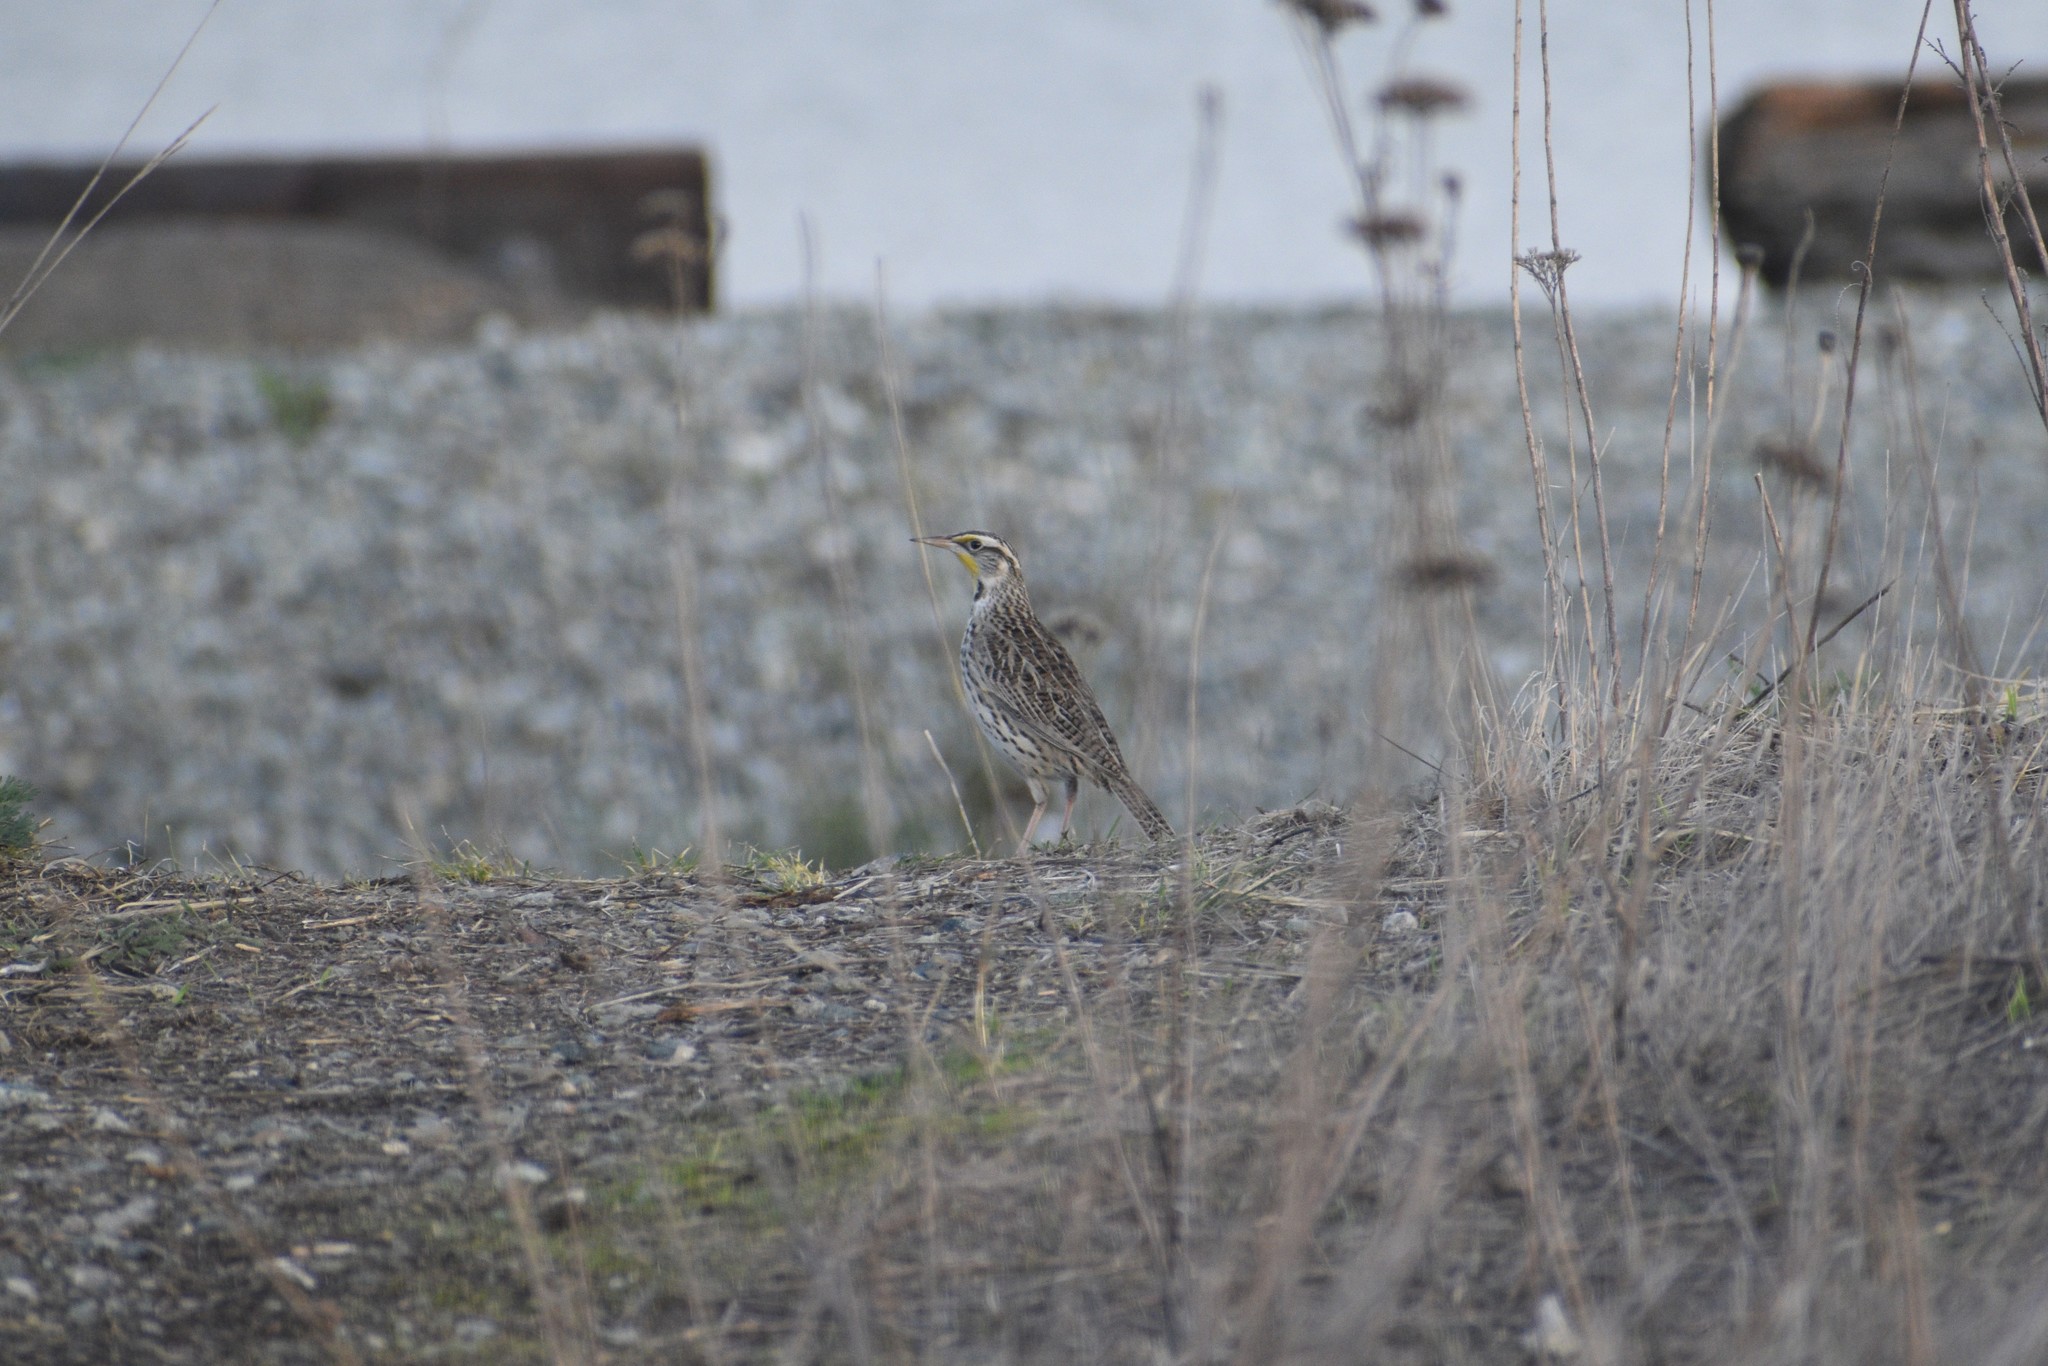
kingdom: Animalia
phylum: Chordata
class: Aves
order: Passeriformes
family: Icteridae
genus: Sturnella
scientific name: Sturnella neglecta
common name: Western meadowlark
